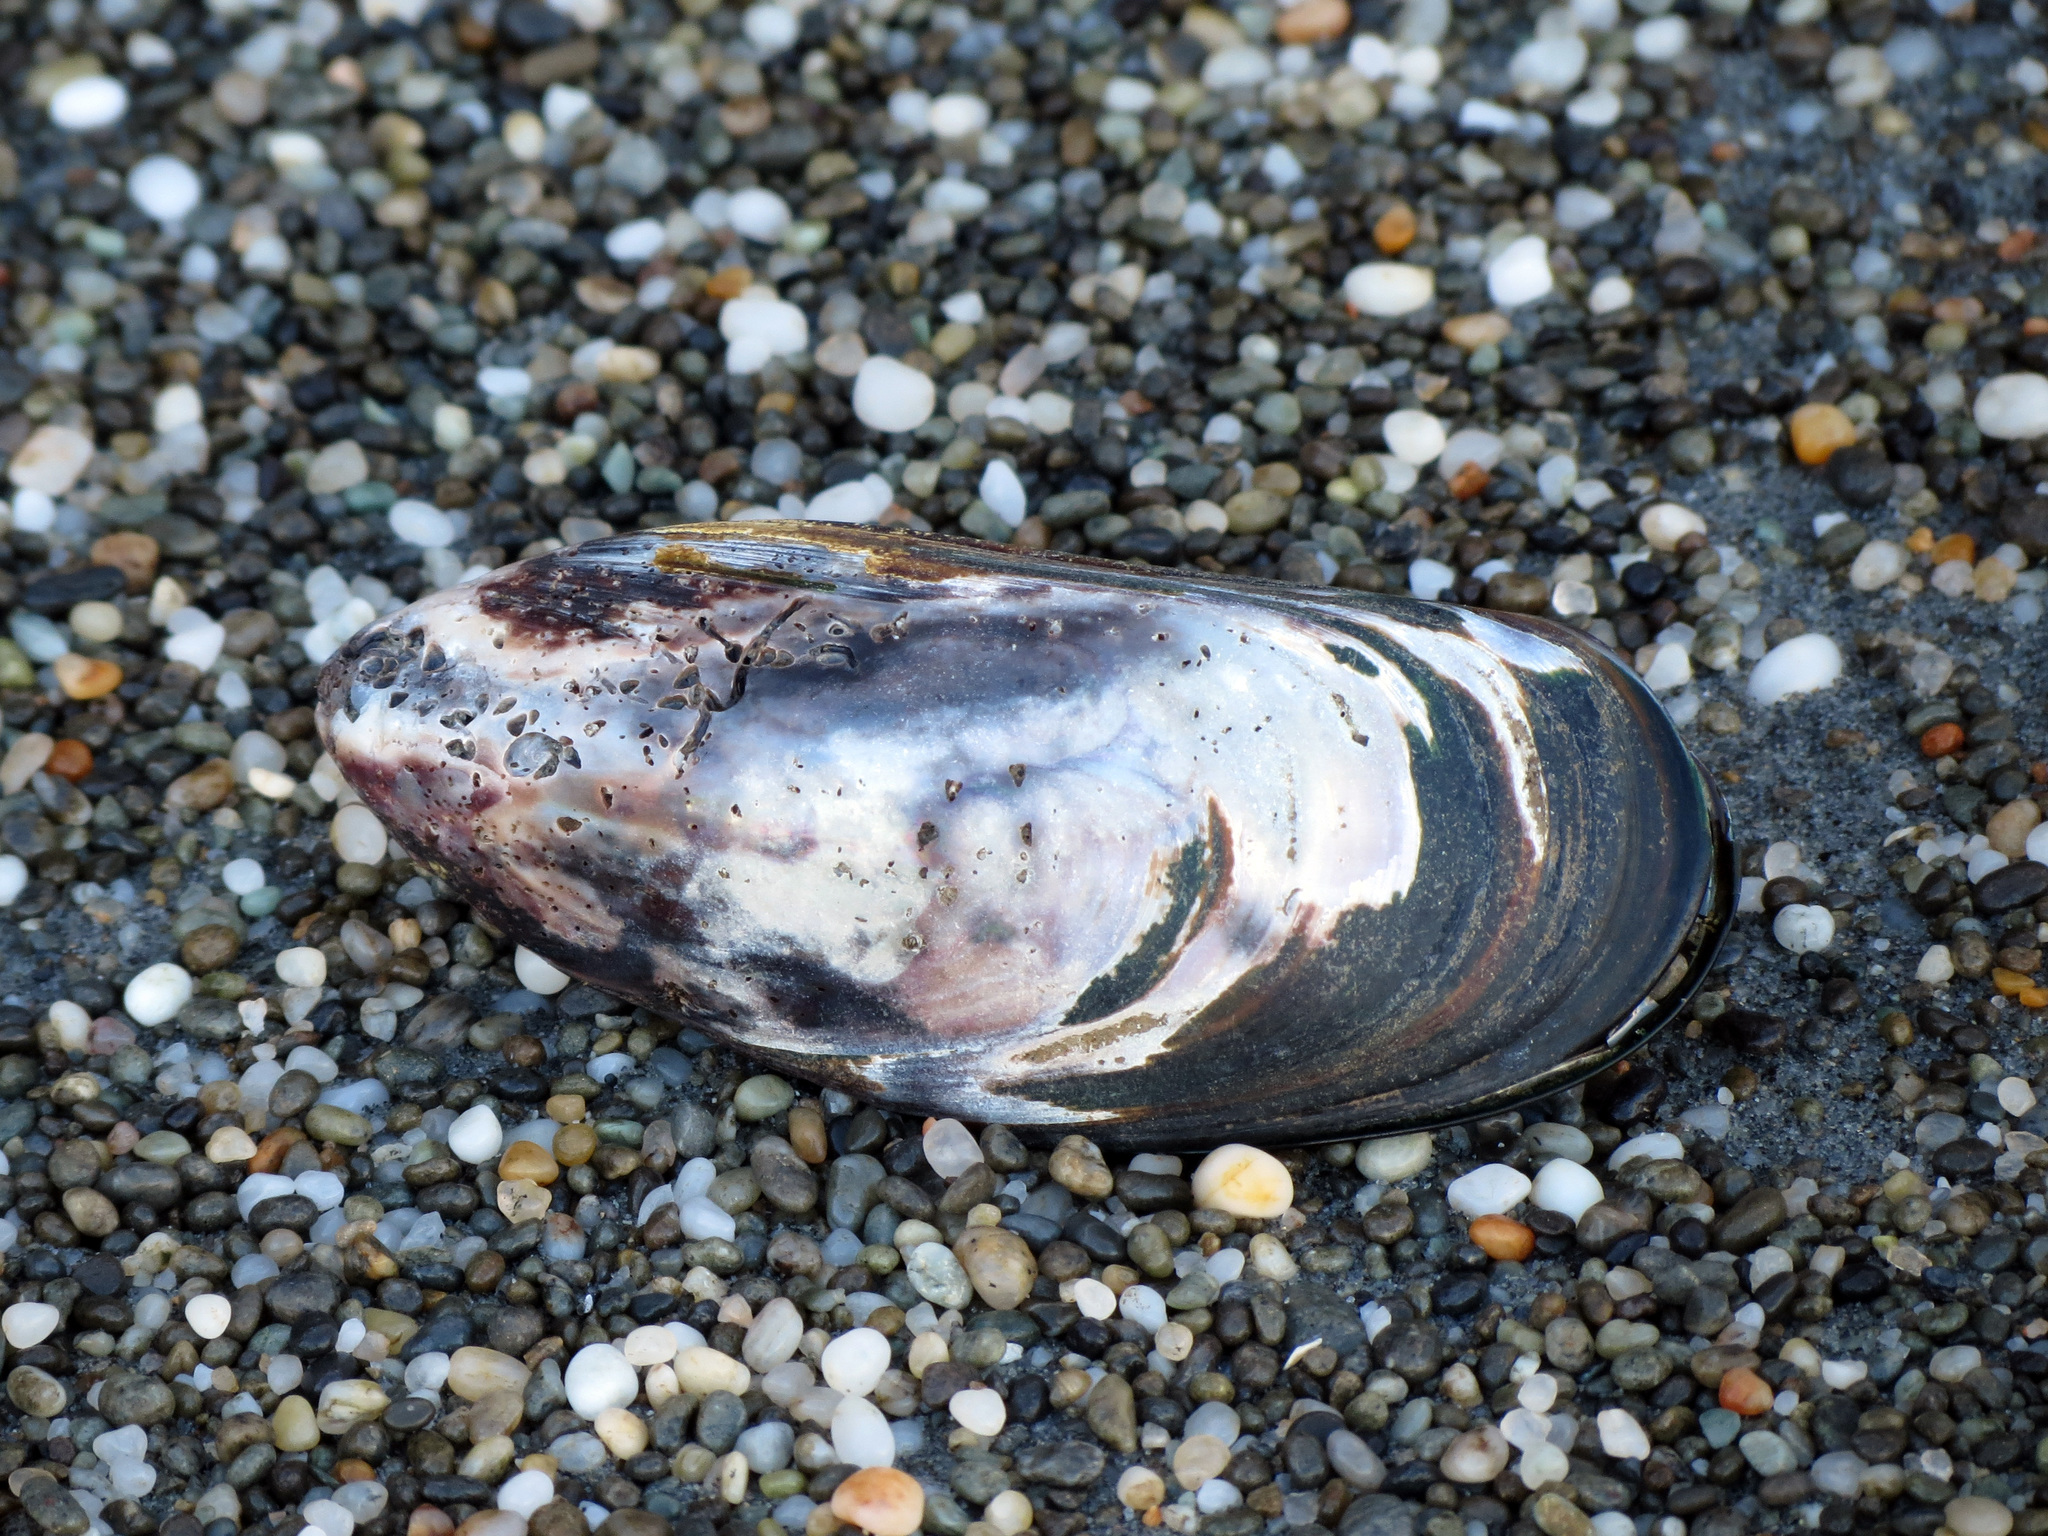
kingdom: Animalia
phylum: Mollusca
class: Bivalvia
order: Mytilida
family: Mytilidae
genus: Perna
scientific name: Perna canaliculus
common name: New zealand greenshelltm
